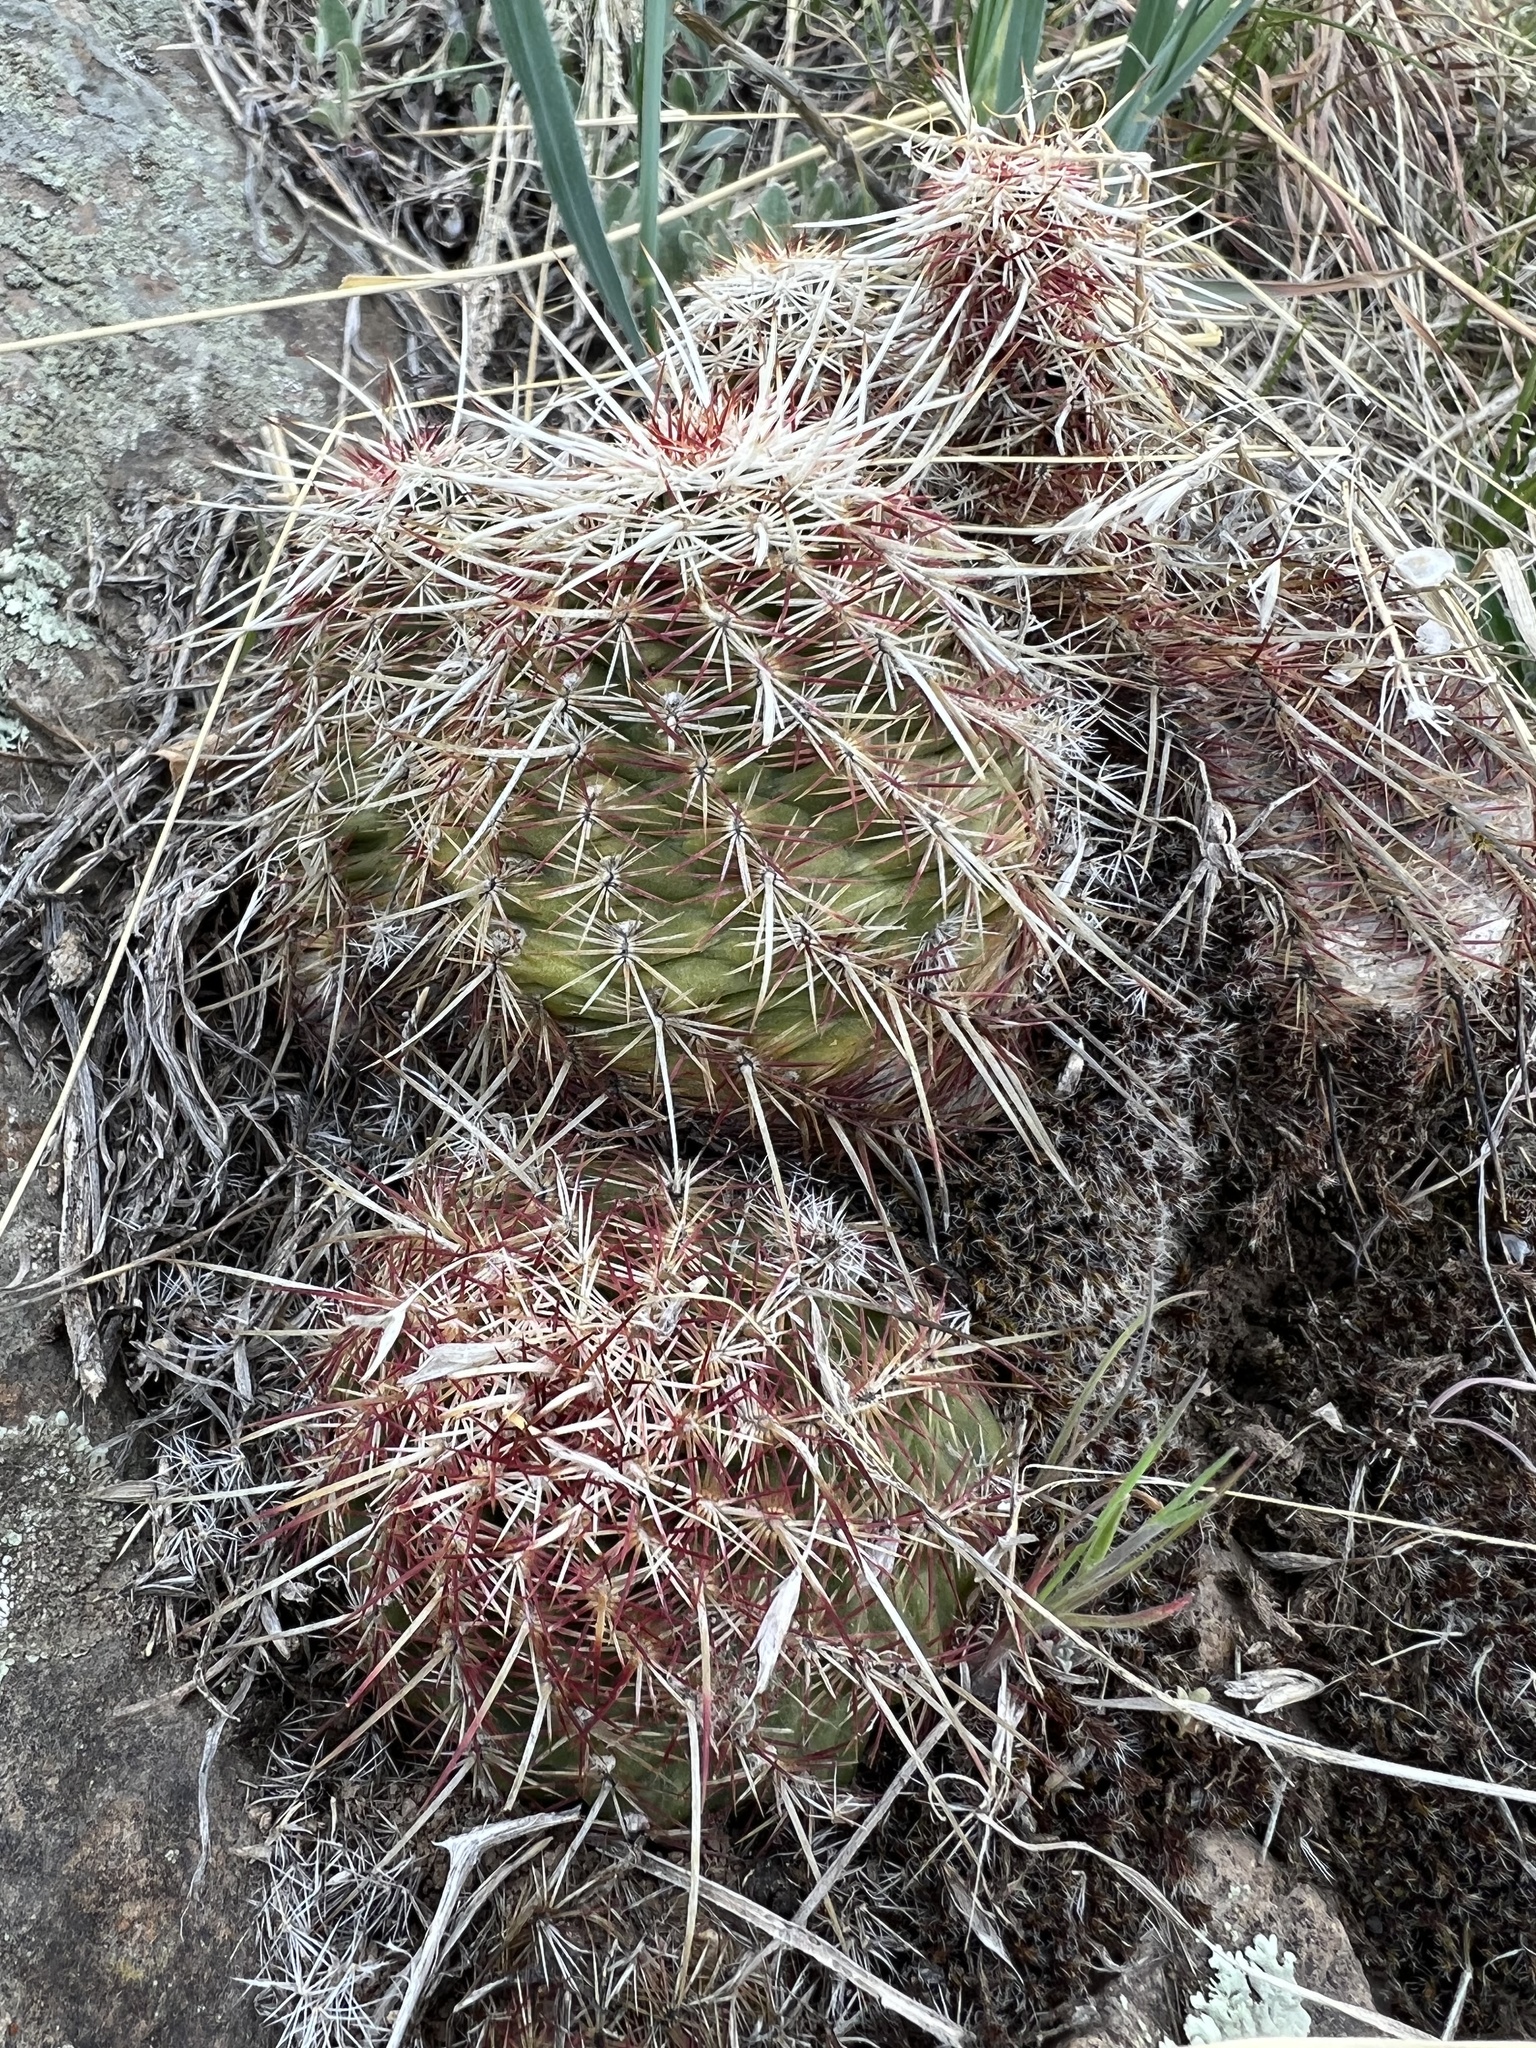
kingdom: Plantae
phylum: Tracheophyta
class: Magnoliopsida
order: Caryophyllales
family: Cactaceae
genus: Echinocereus
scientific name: Echinocereus viridiflorus
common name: Nylon hedgehog cactus
